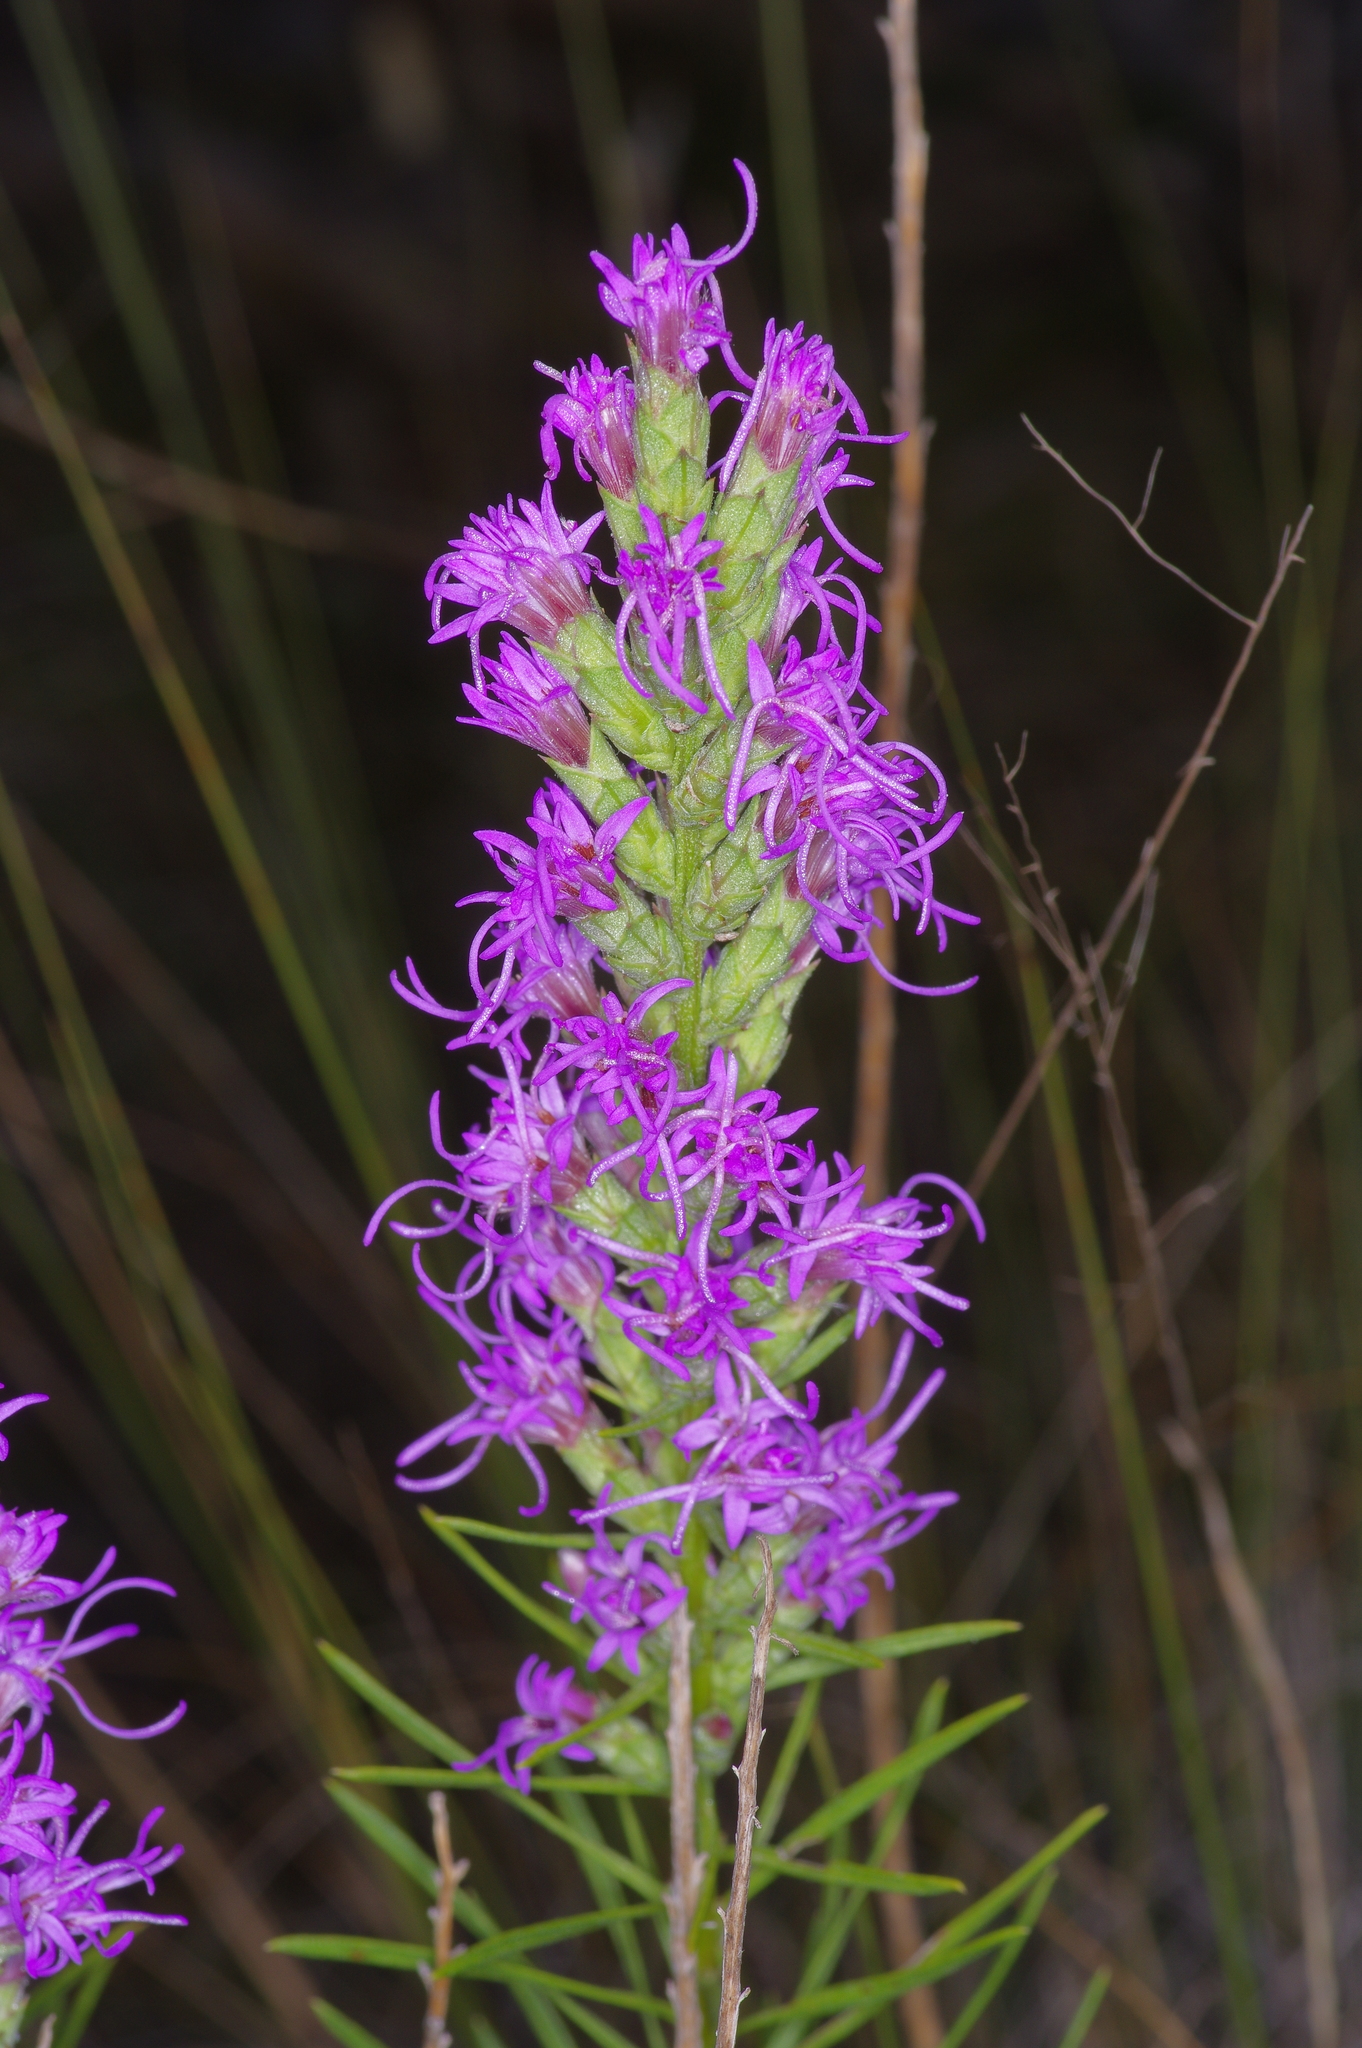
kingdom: Plantae
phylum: Tracheophyta
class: Magnoliopsida
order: Asterales
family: Asteraceae
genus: Liatris
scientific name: Liatris punctata
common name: Dotted gayfeather
